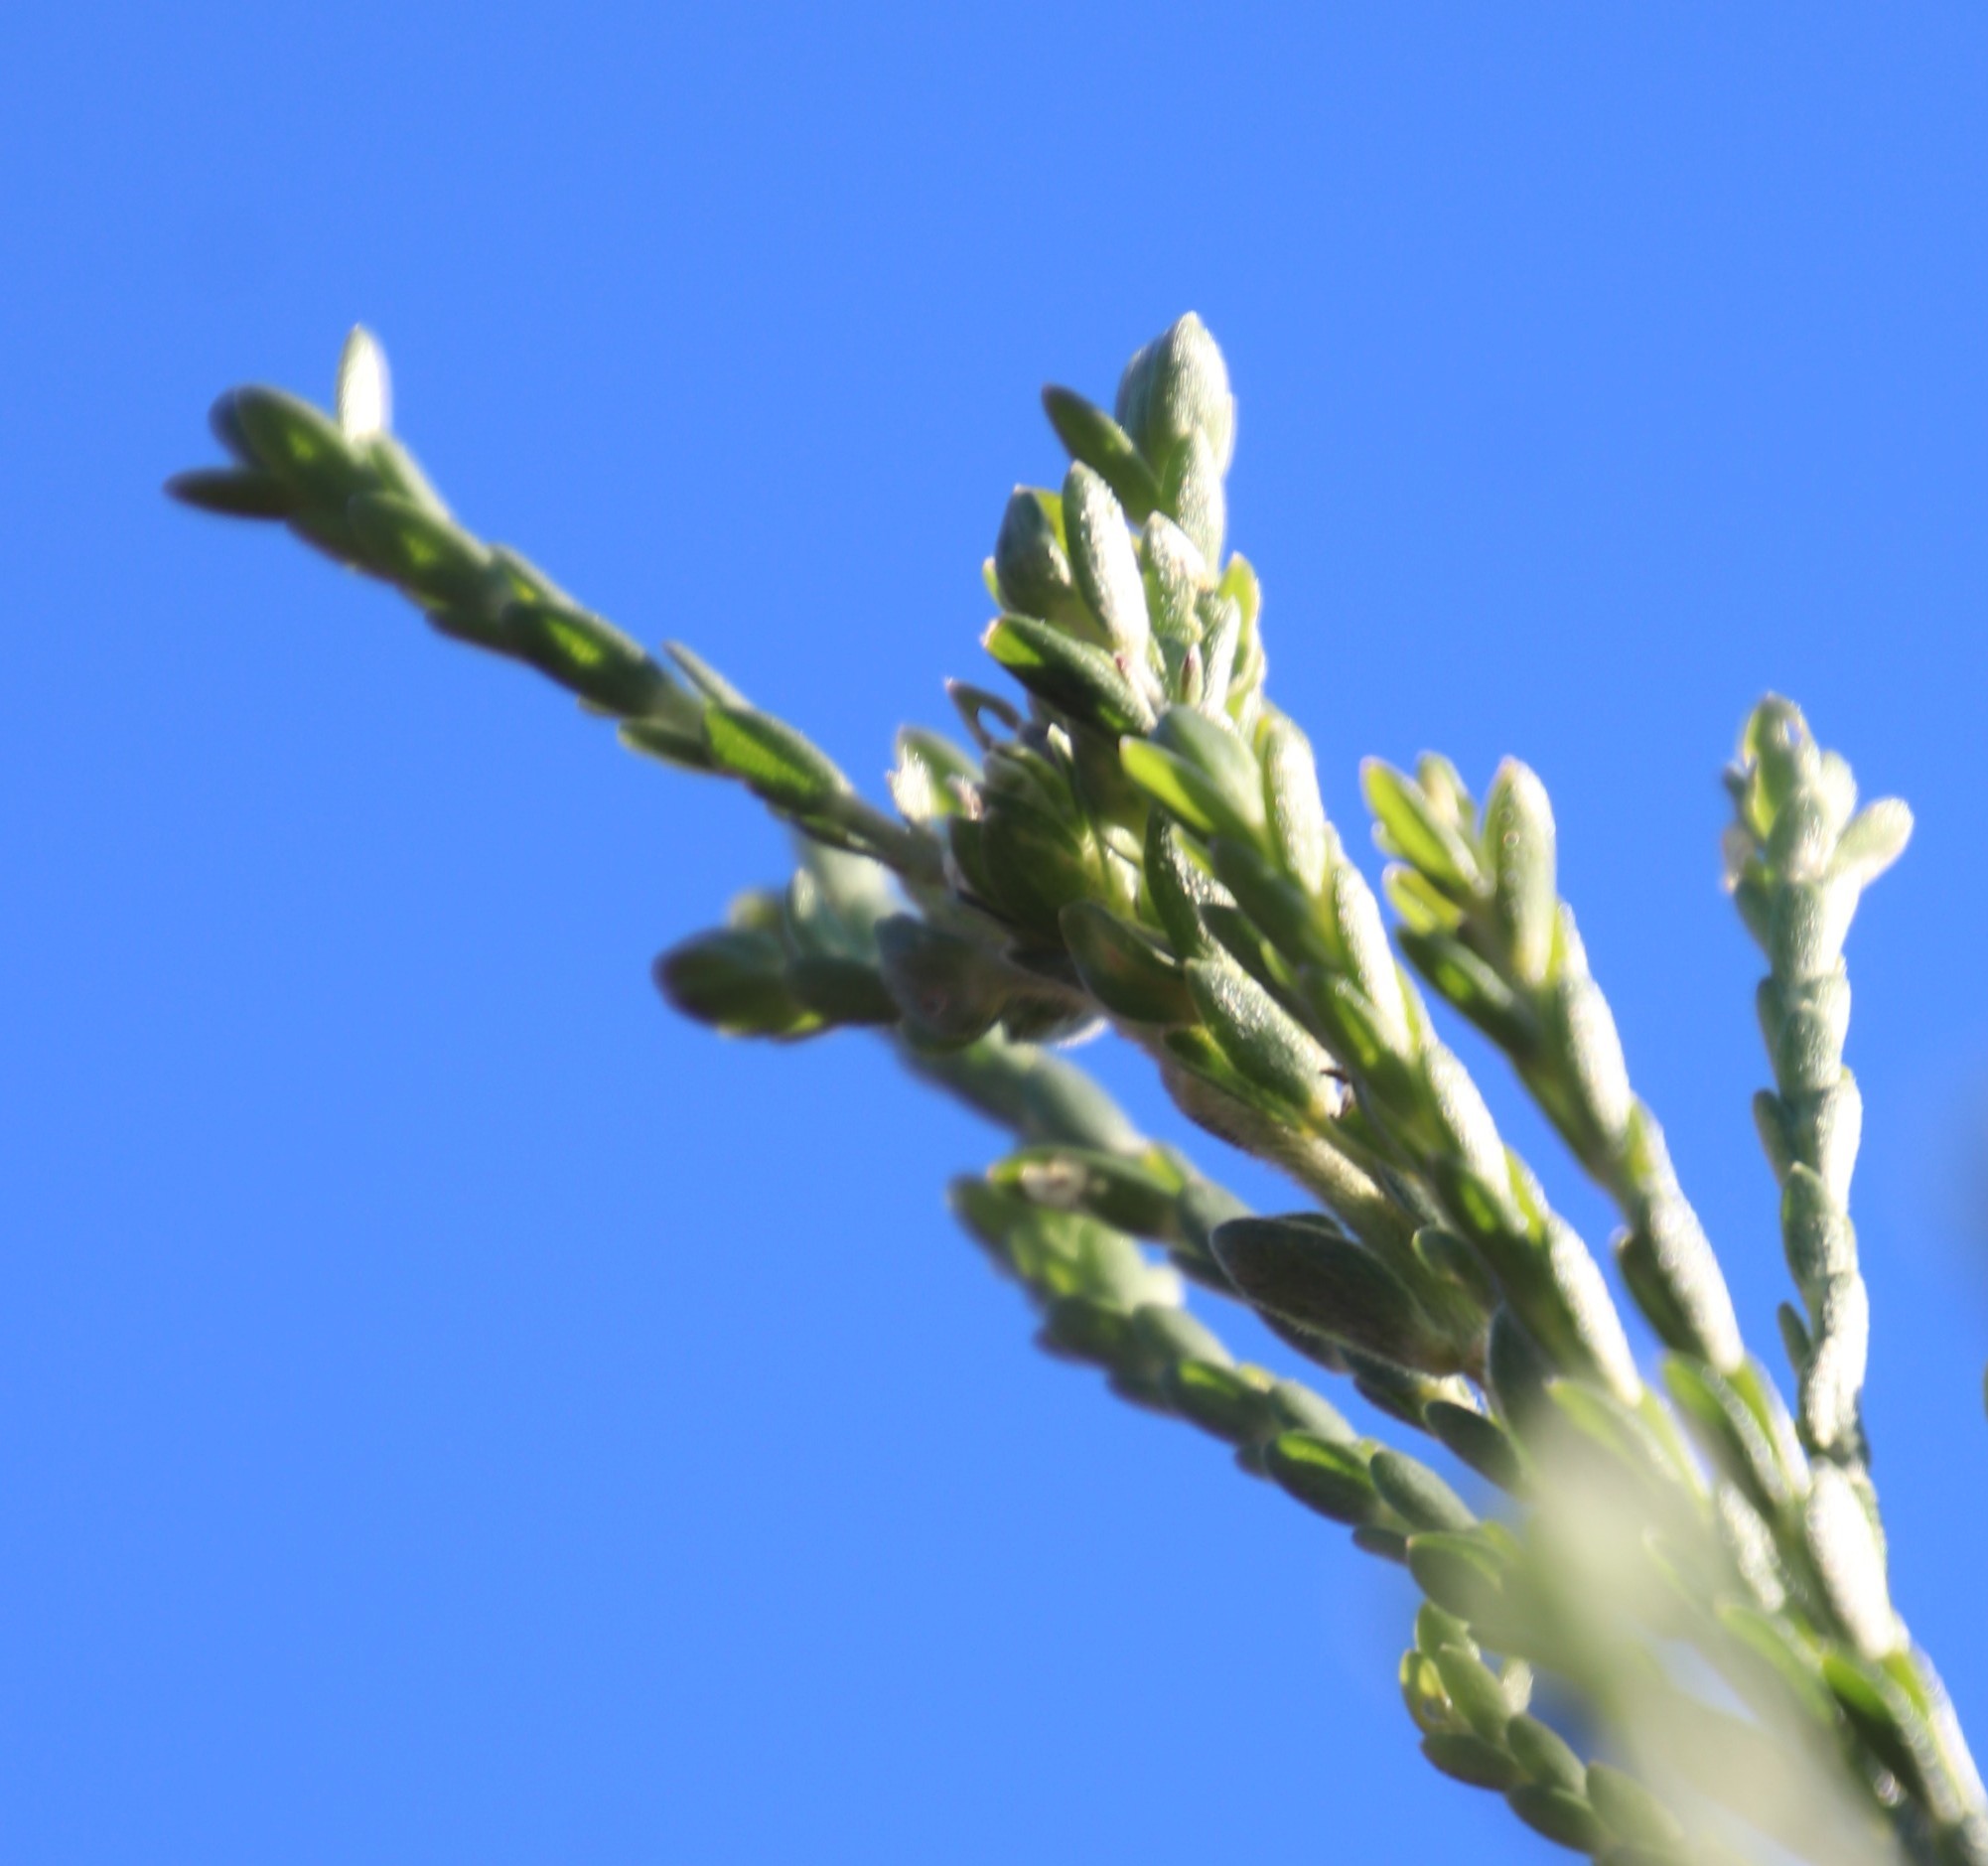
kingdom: Plantae
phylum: Tracheophyta
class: Magnoliopsida
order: Malvales
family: Thymelaeaceae
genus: Gnidia
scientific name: Gnidia sericea
